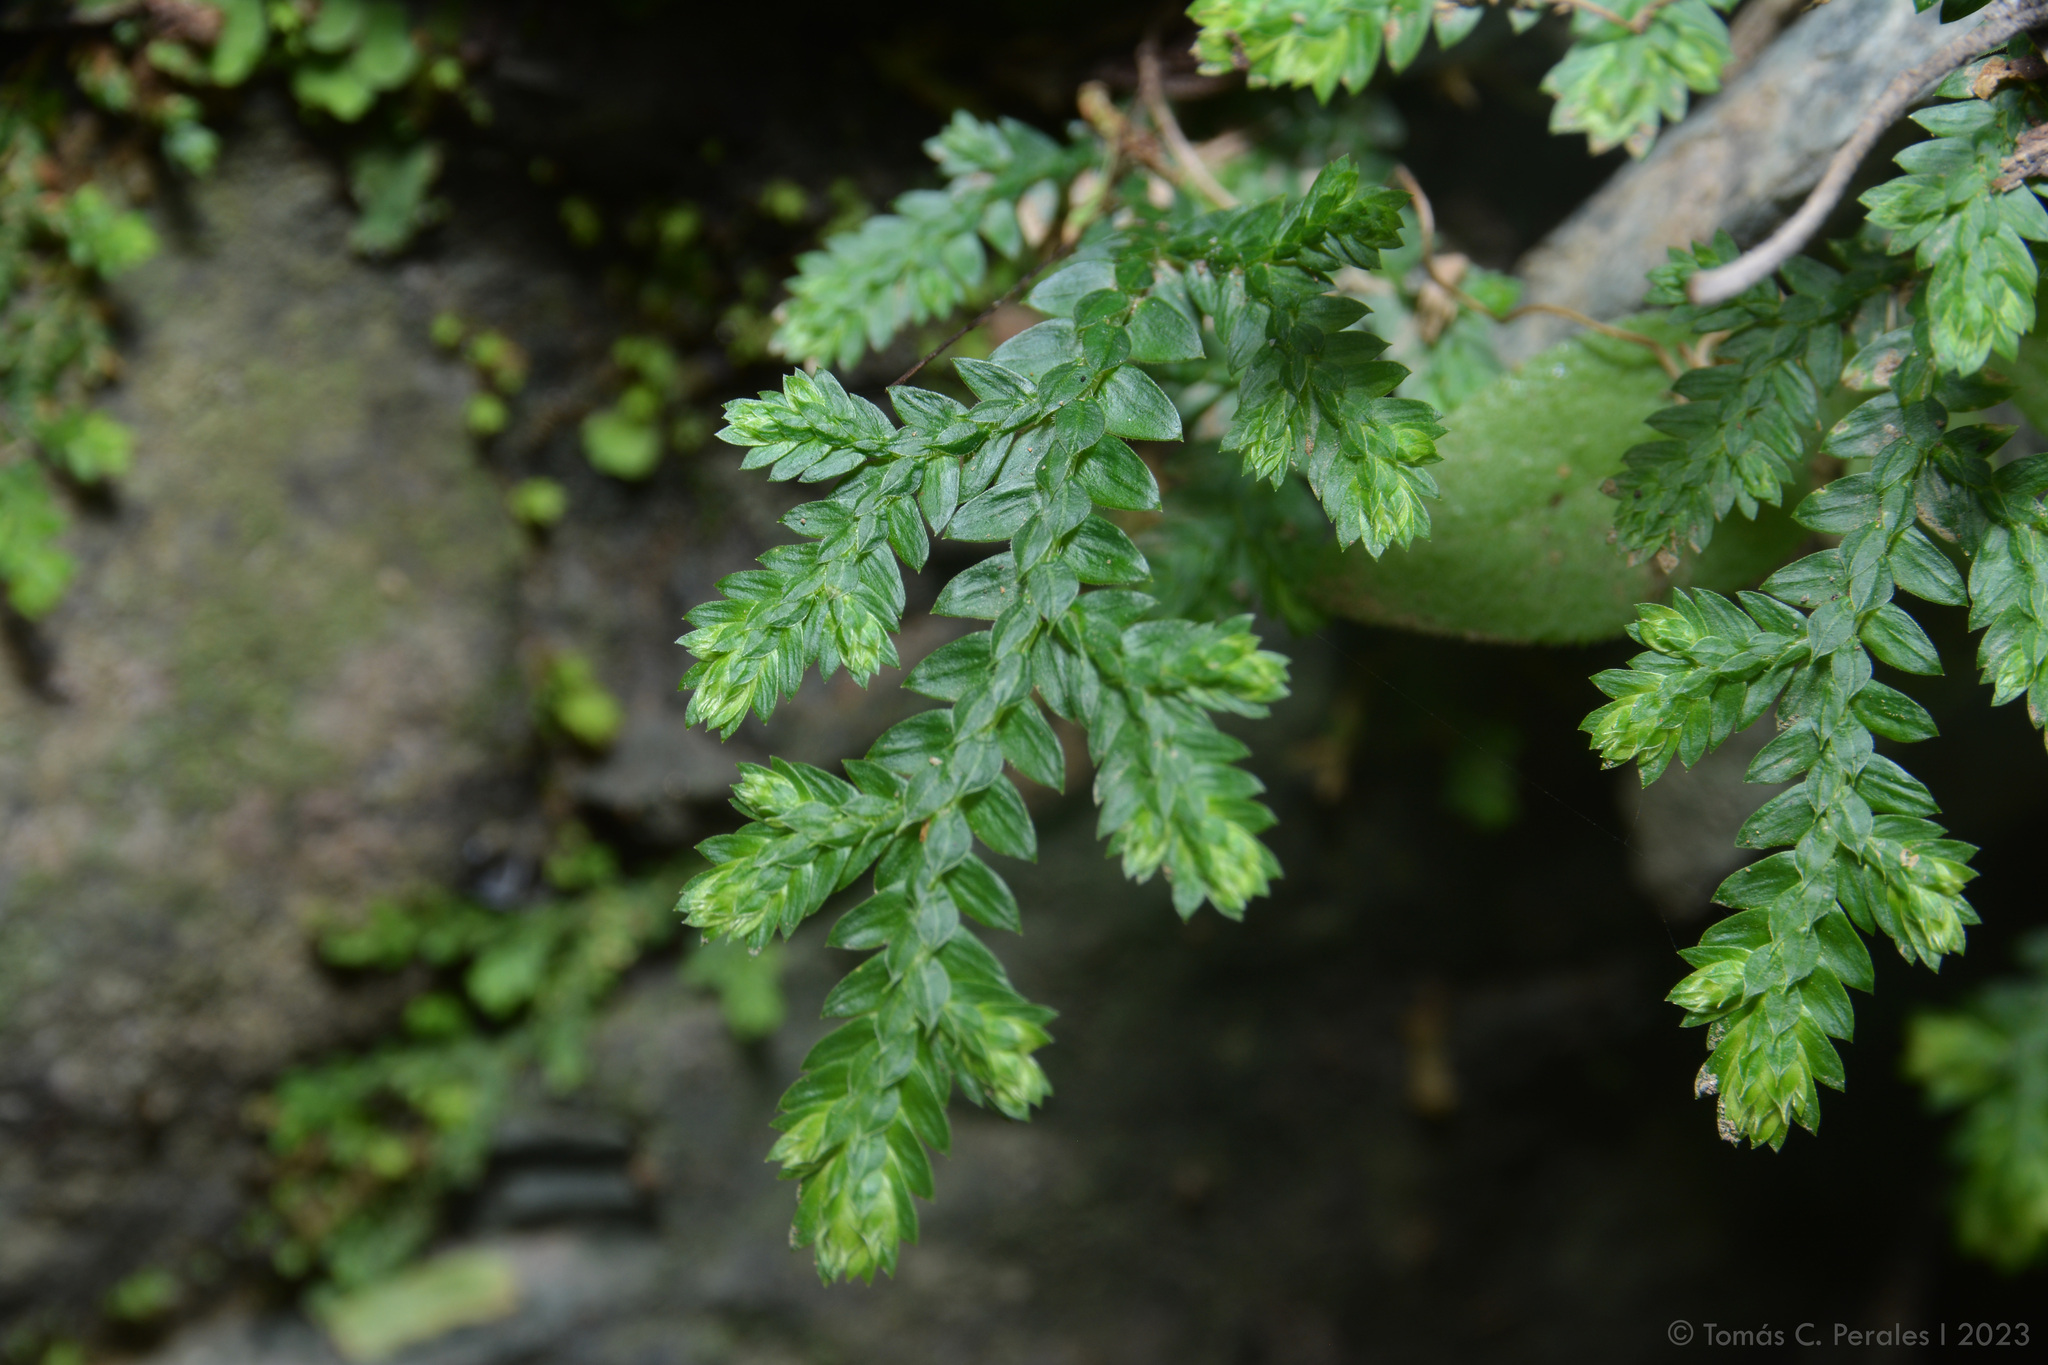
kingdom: Plantae
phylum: Tracheophyta
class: Lycopodiopsida
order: Selaginellales
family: Selaginellaceae
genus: Selaginella
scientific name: Selaginella novae-hollandiae
